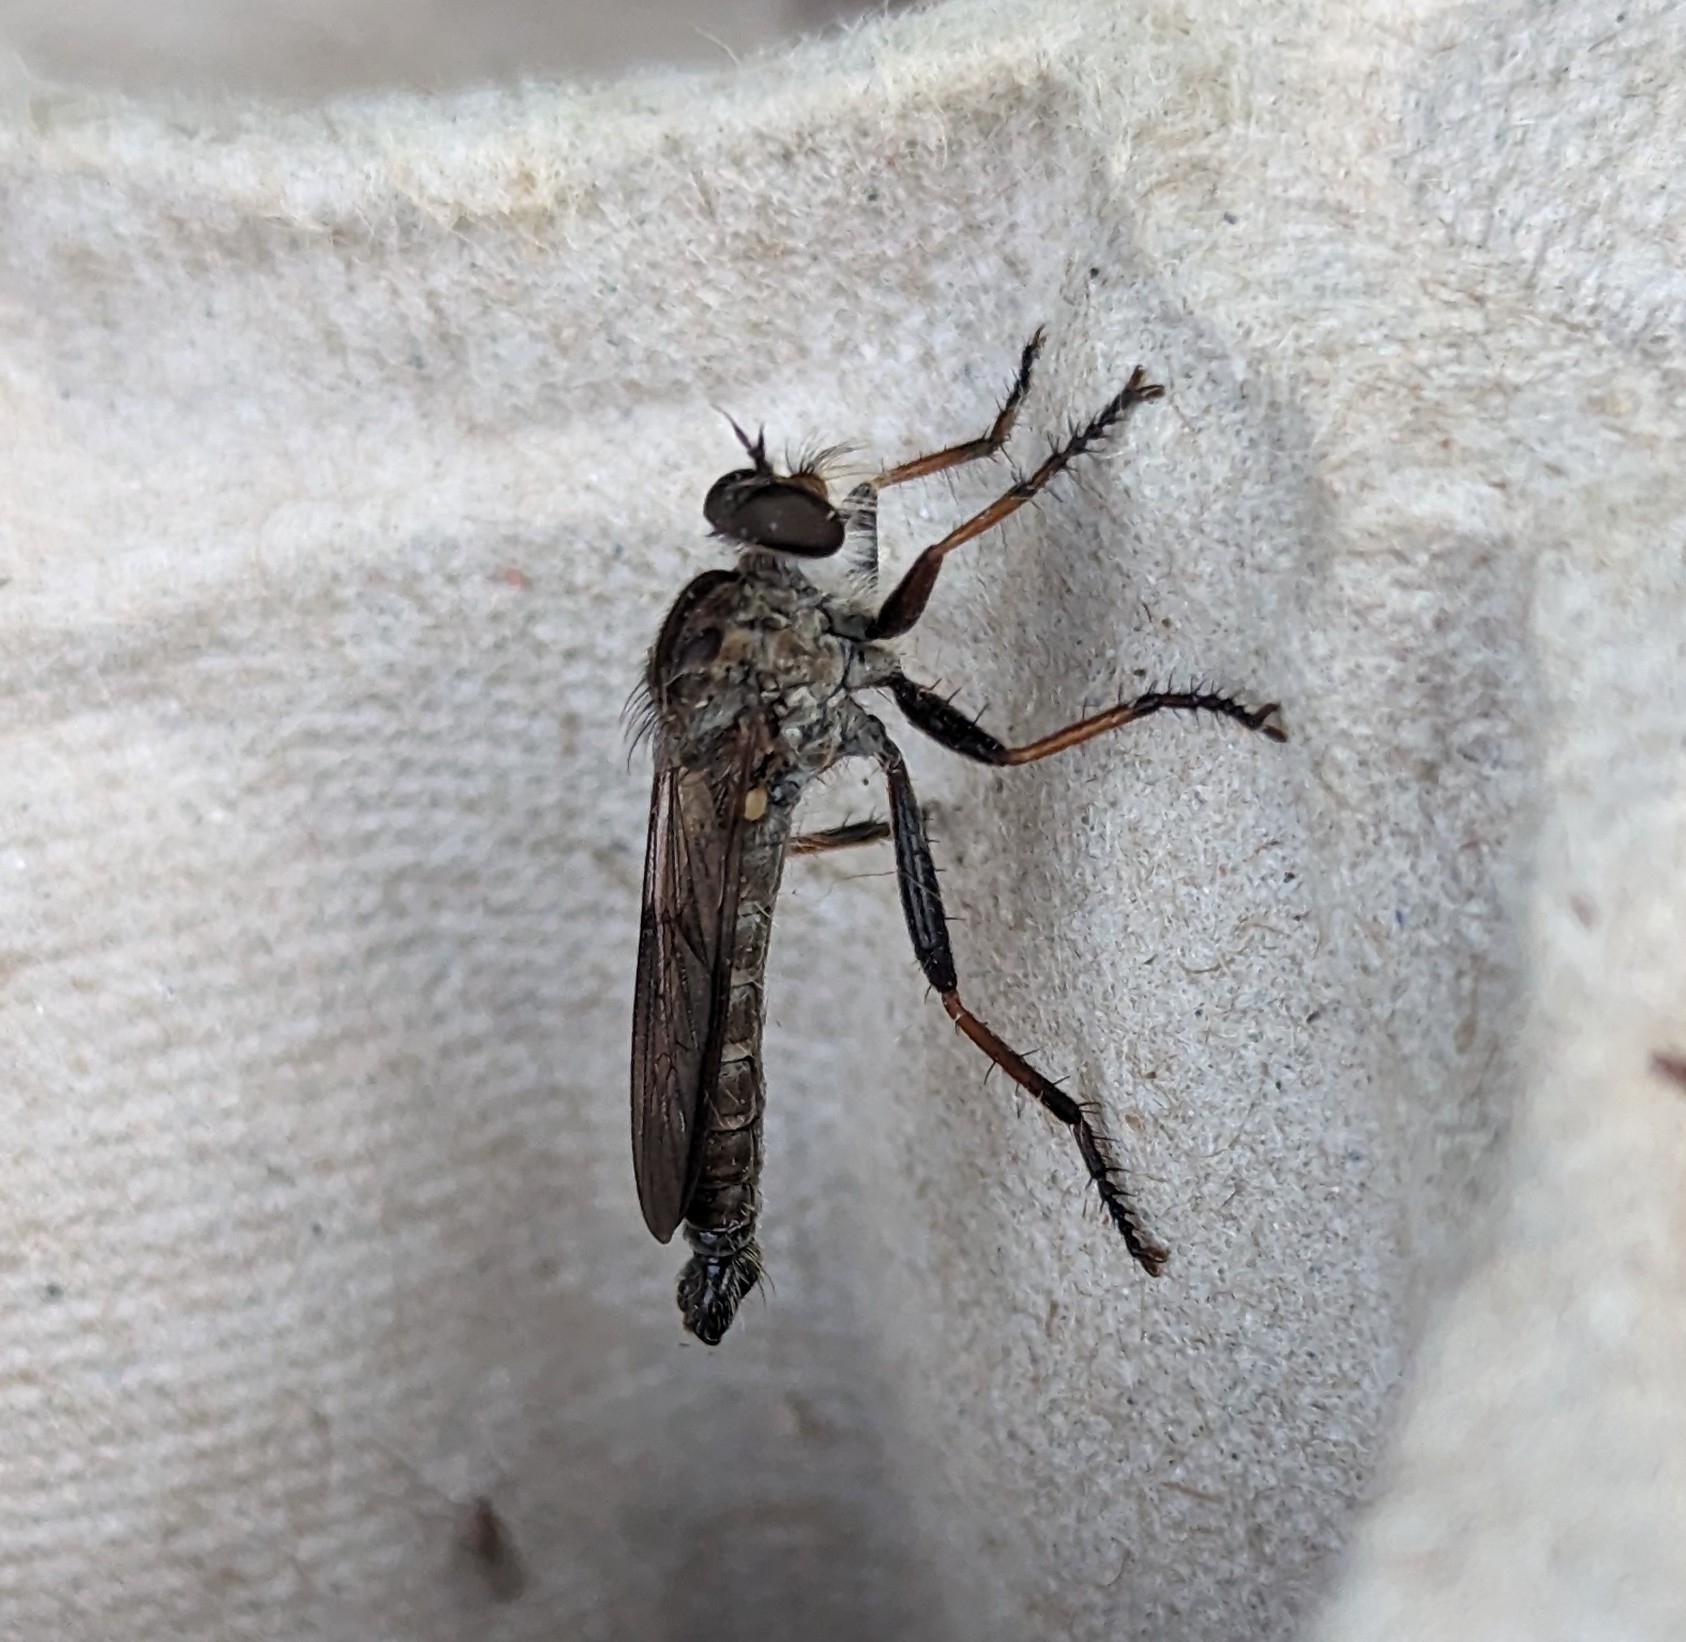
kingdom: Animalia
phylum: Arthropoda
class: Insecta
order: Diptera
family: Asilidae
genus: Neomochtherus
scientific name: Neomochtherus willistoni
